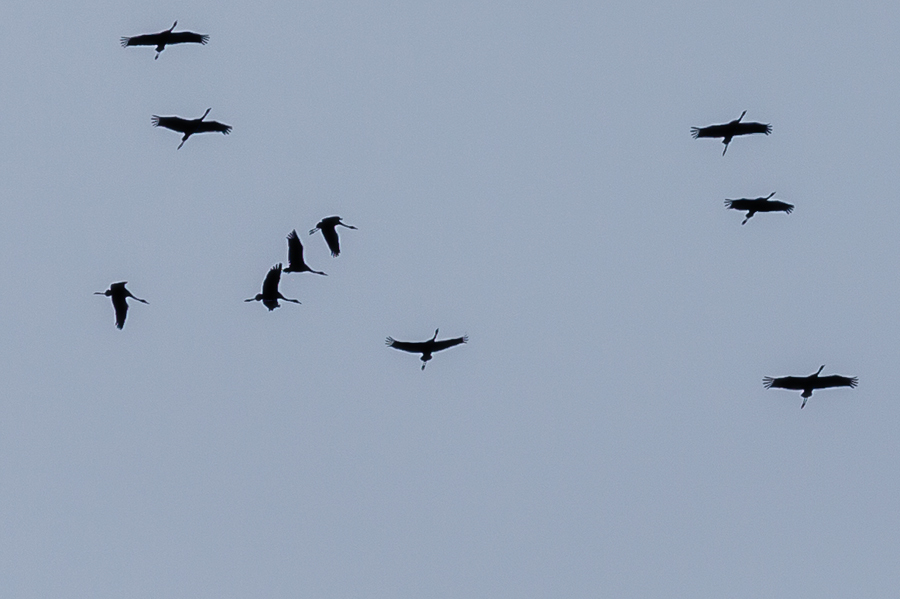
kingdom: Animalia
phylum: Chordata
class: Aves
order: Gruiformes
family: Gruidae
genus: Grus
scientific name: Grus grus
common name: Common crane
